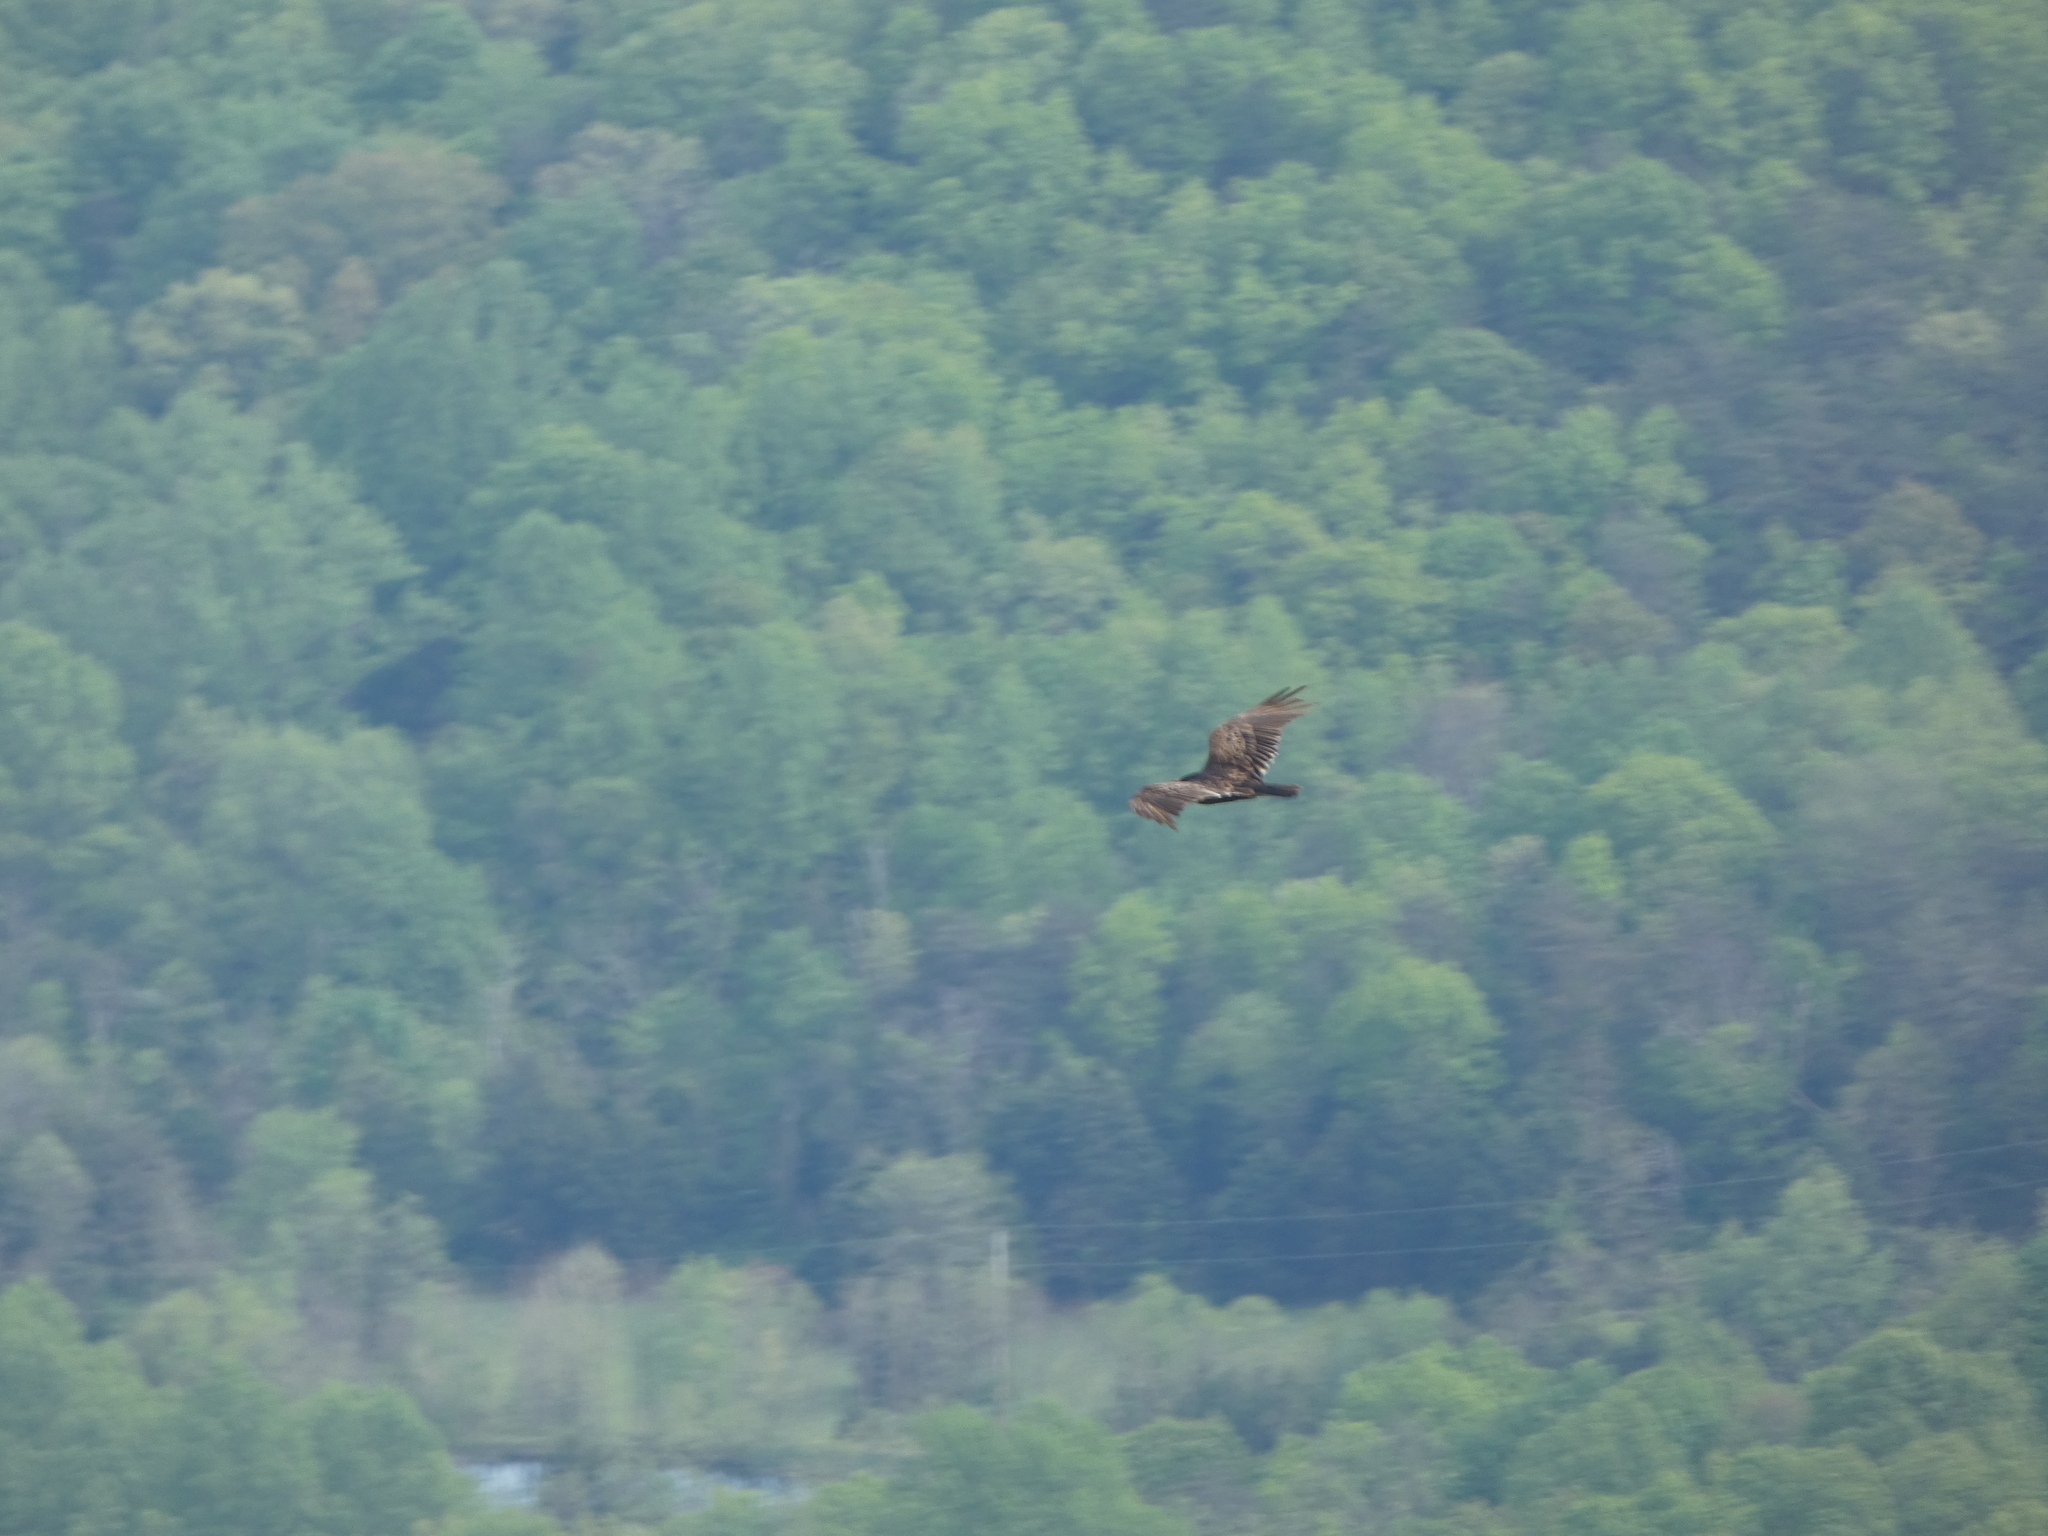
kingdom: Animalia
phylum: Chordata
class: Aves
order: Accipitriformes
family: Cathartidae
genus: Cathartes
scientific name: Cathartes aura
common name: Turkey vulture
